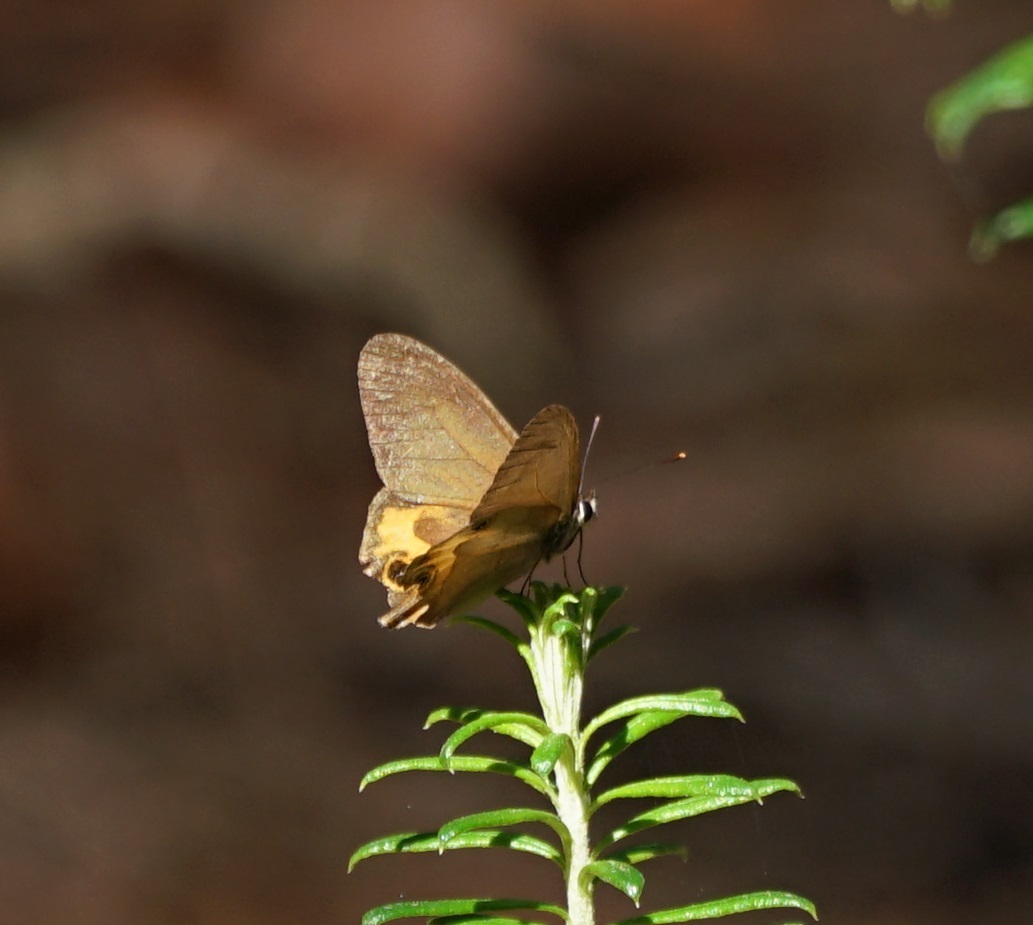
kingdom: Animalia
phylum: Arthropoda
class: Insecta
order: Lepidoptera
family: Nymphalidae
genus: Hypocysta
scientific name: Hypocysta metirius
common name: Brown ringlet
